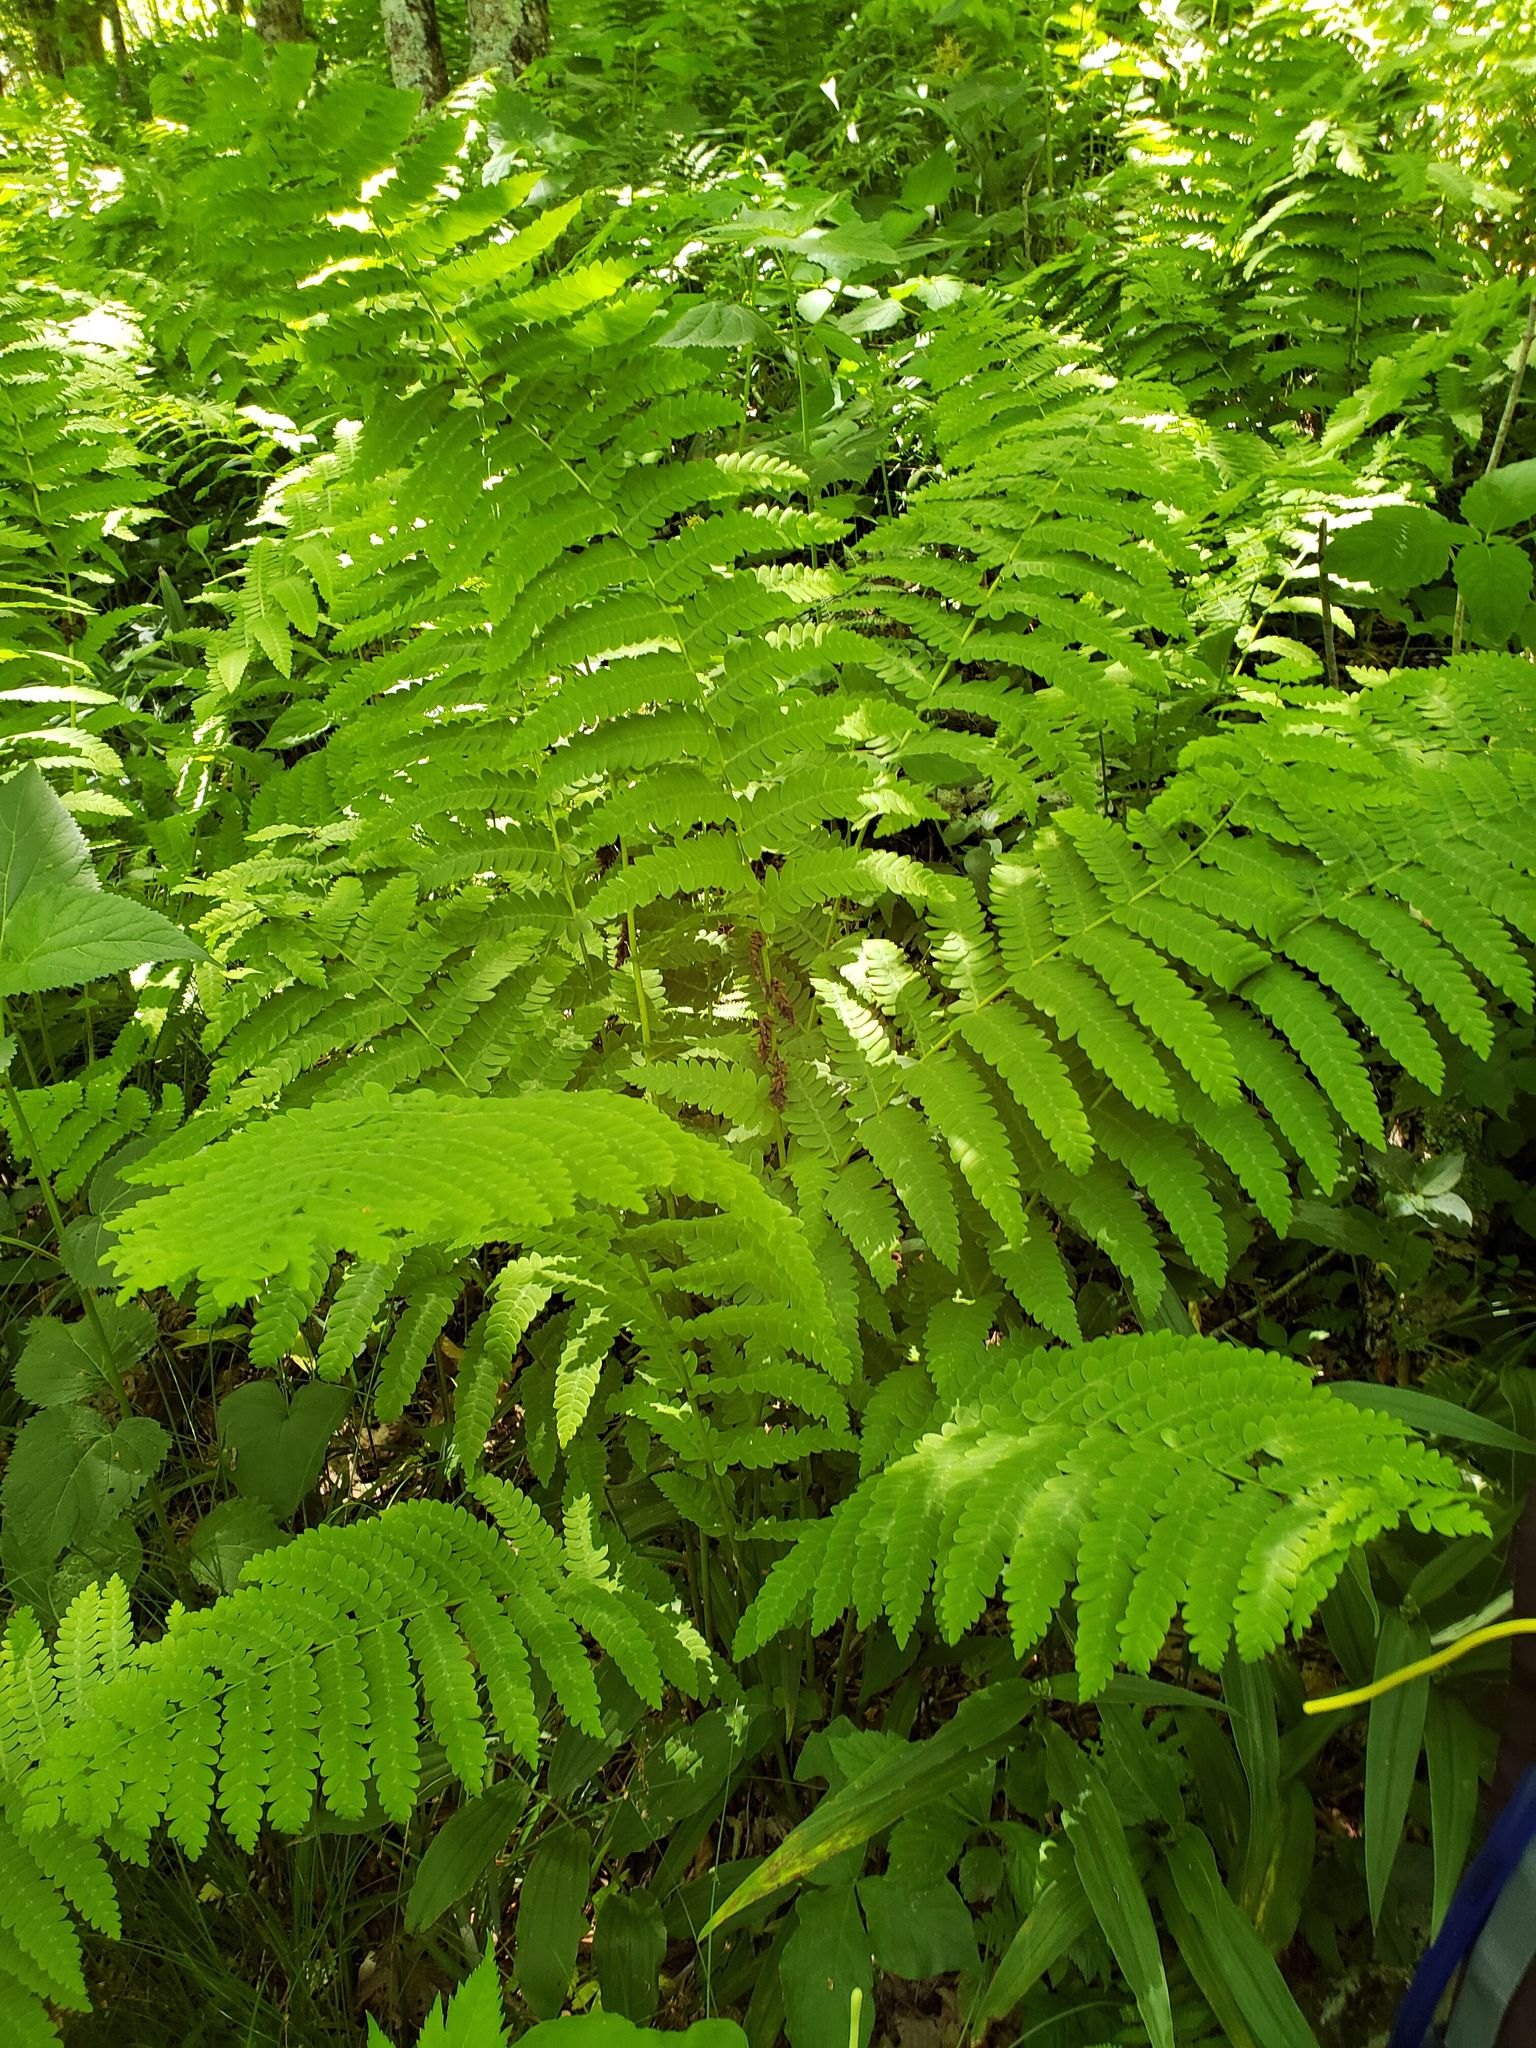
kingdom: Plantae
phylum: Tracheophyta
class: Polypodiopsida
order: Osmundales
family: Osmundaceae
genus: Claytosmunda
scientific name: Claytosmunda claytoniana
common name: Clayton's fern
